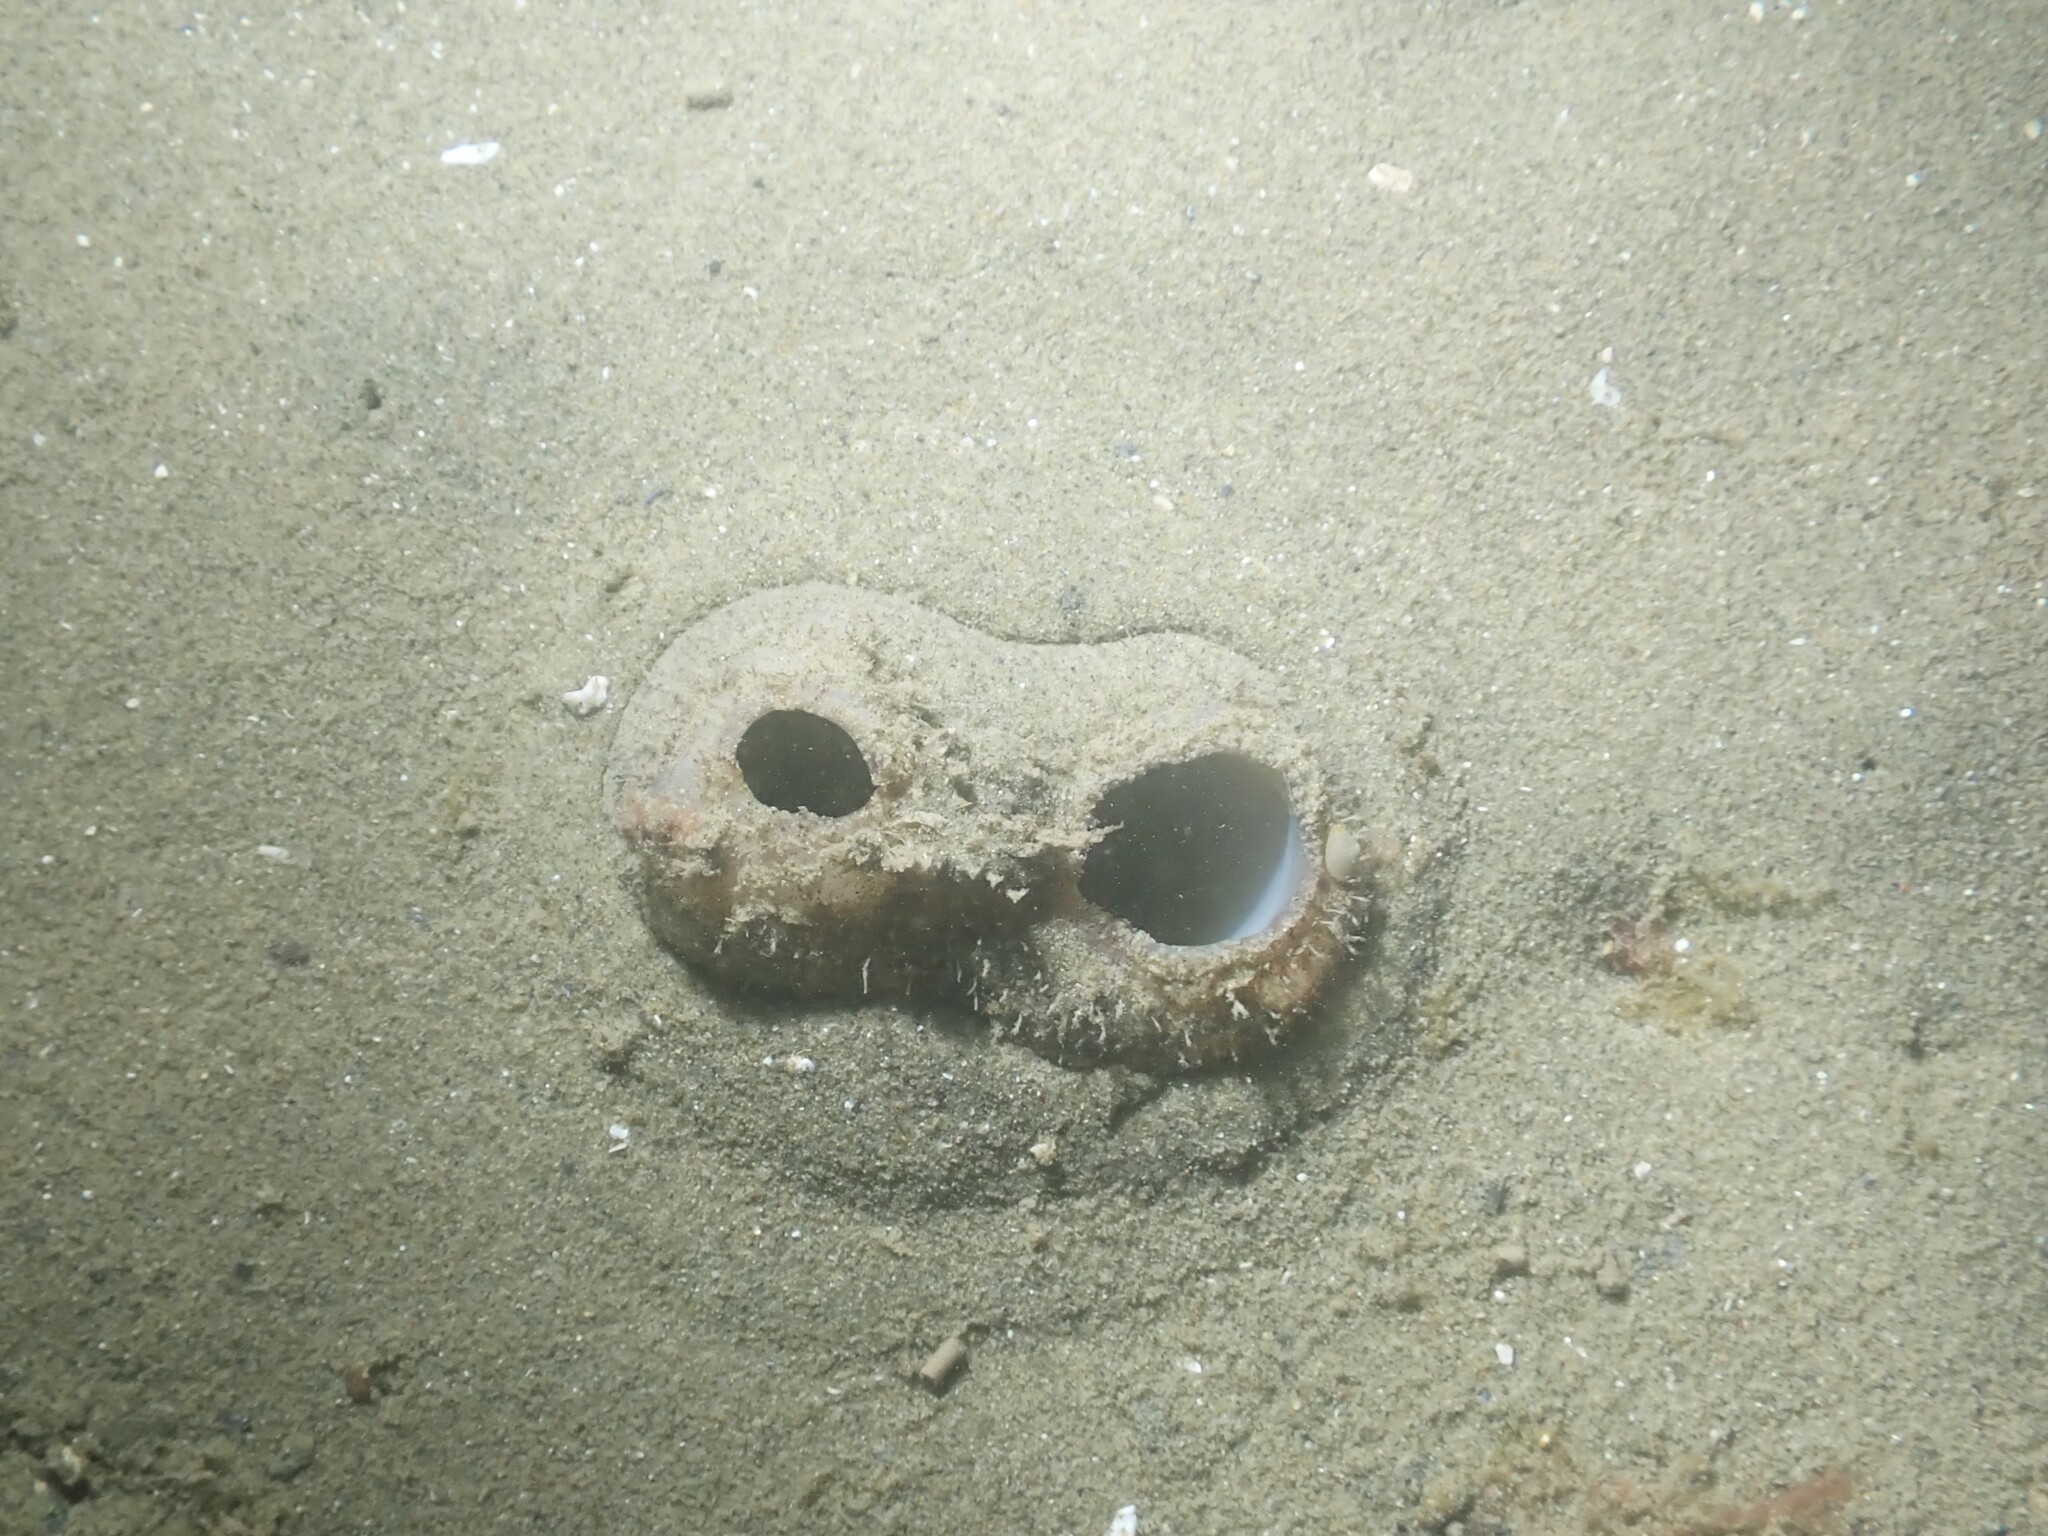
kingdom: Animalia
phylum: Mollusca
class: Bivalvia
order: Adapedonta
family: Hiatellidae
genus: Panopea
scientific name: Panopea zelandica
